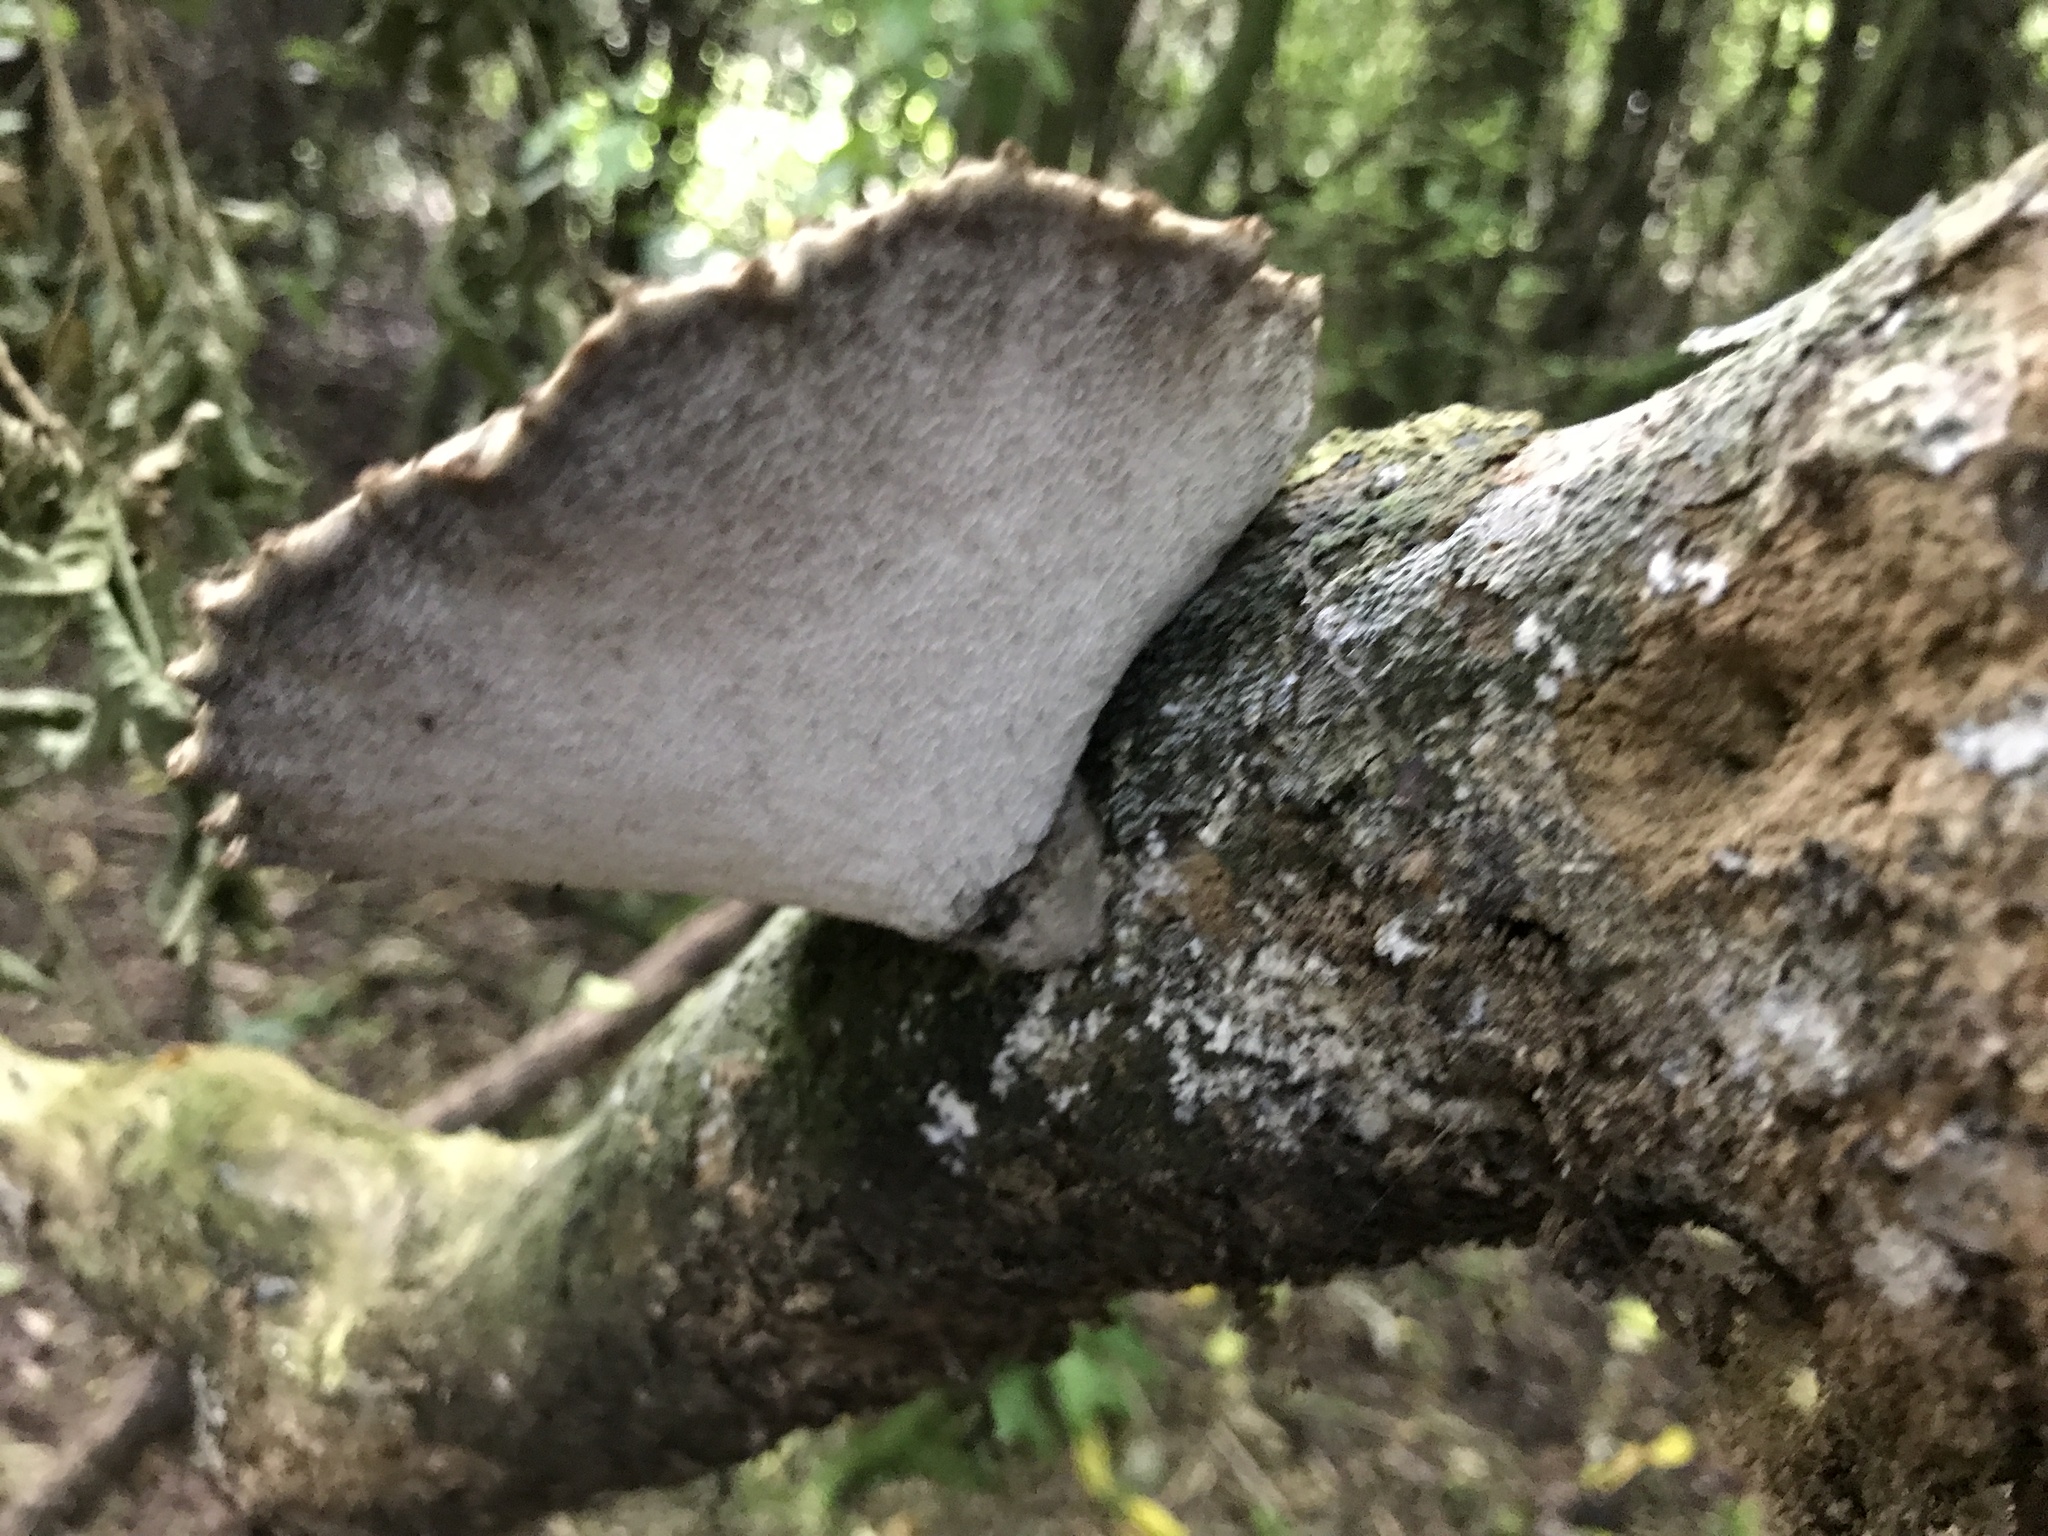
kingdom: Fungi
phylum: Basidiomycota
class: Agaricomycetes
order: Polyporales
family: Polyporaceae
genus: Bresadolia
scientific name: Bresadolia
